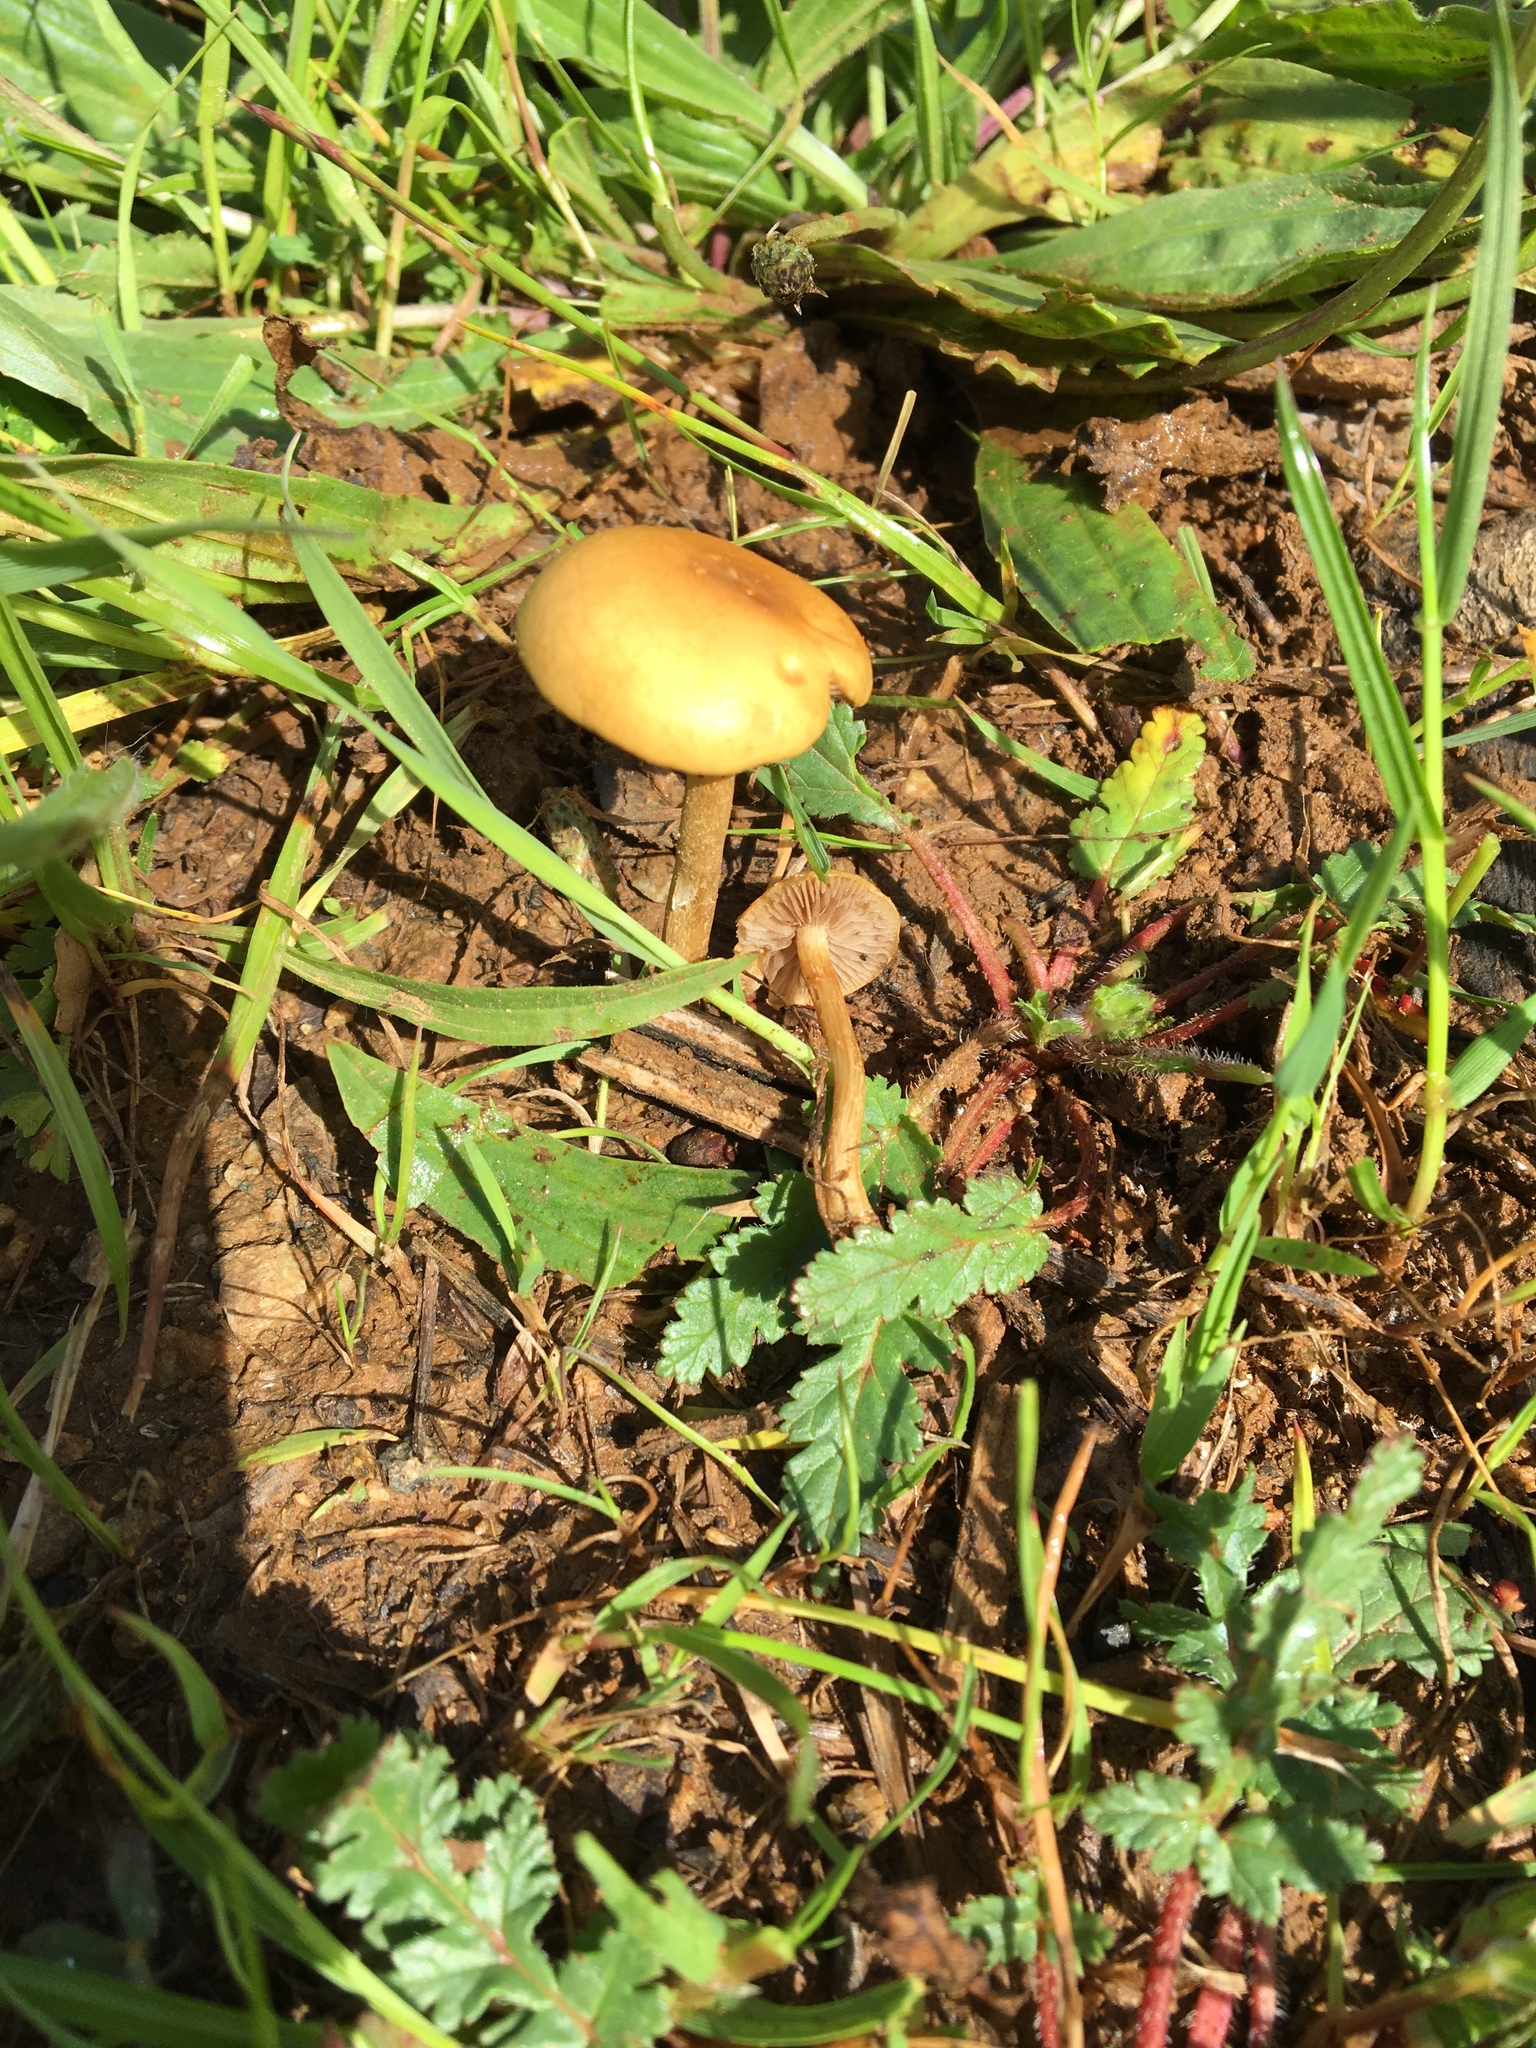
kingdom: Fungi
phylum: Basidiomycota
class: Agaricomycetes
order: Agaricales
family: Strophariaceae
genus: Agrocybe
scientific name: Agrocybe pediades
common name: Common fieldcap
